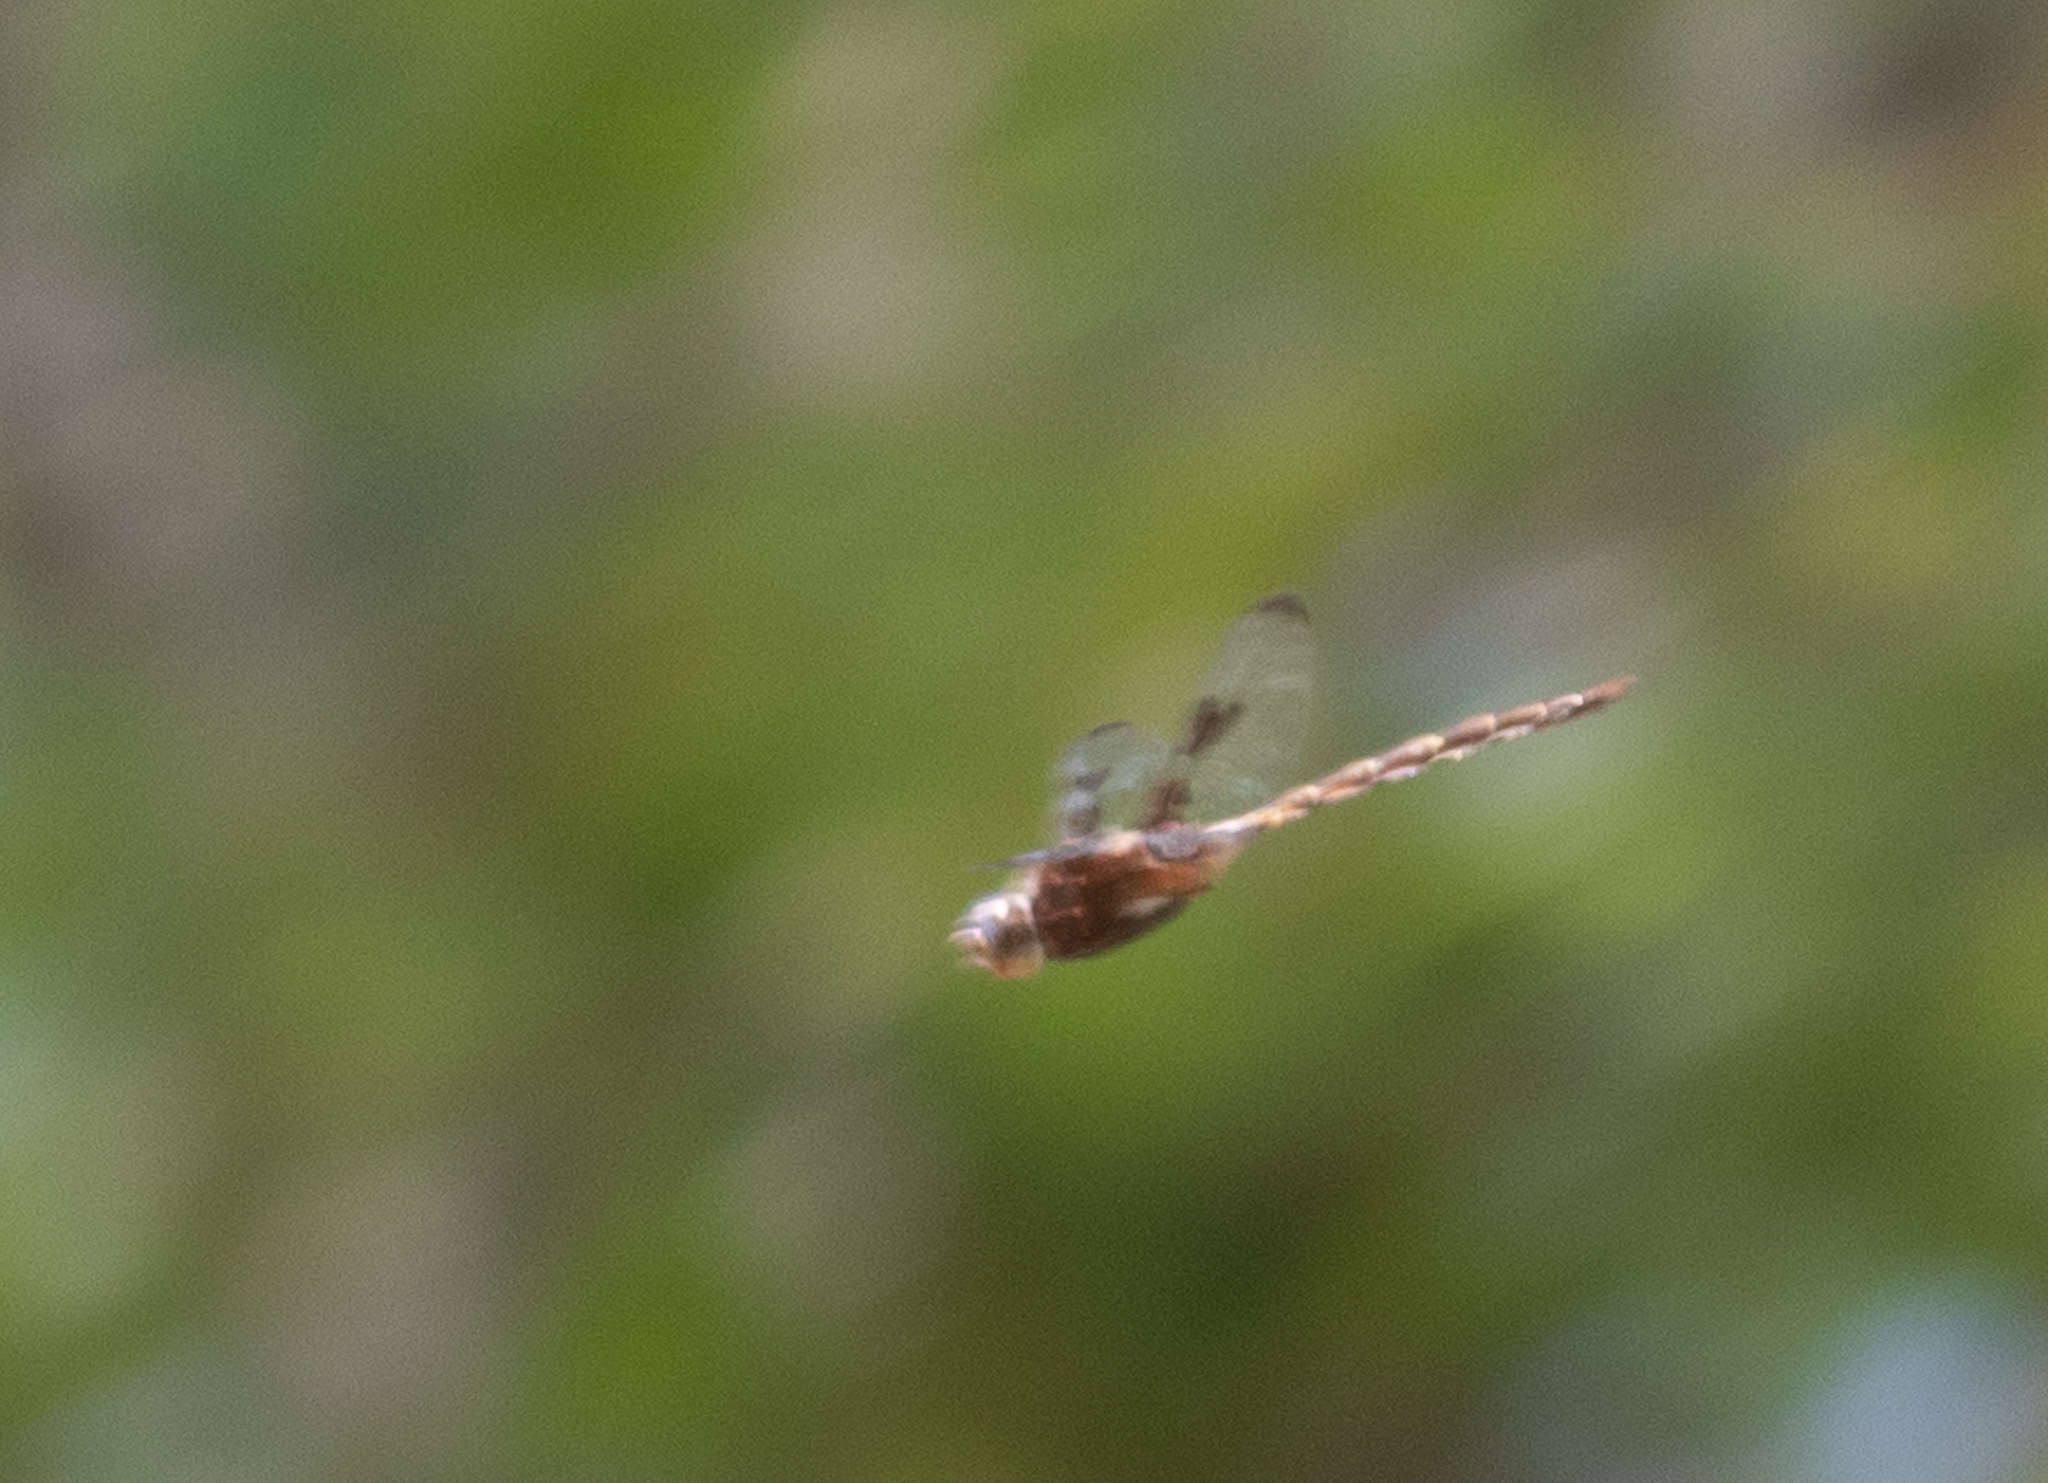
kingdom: Animalia
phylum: Arthropoda
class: Insecta
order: Odonata
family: Corduliidae
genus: Epitheca
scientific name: Epitheca princeps
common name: Prince baskettail
